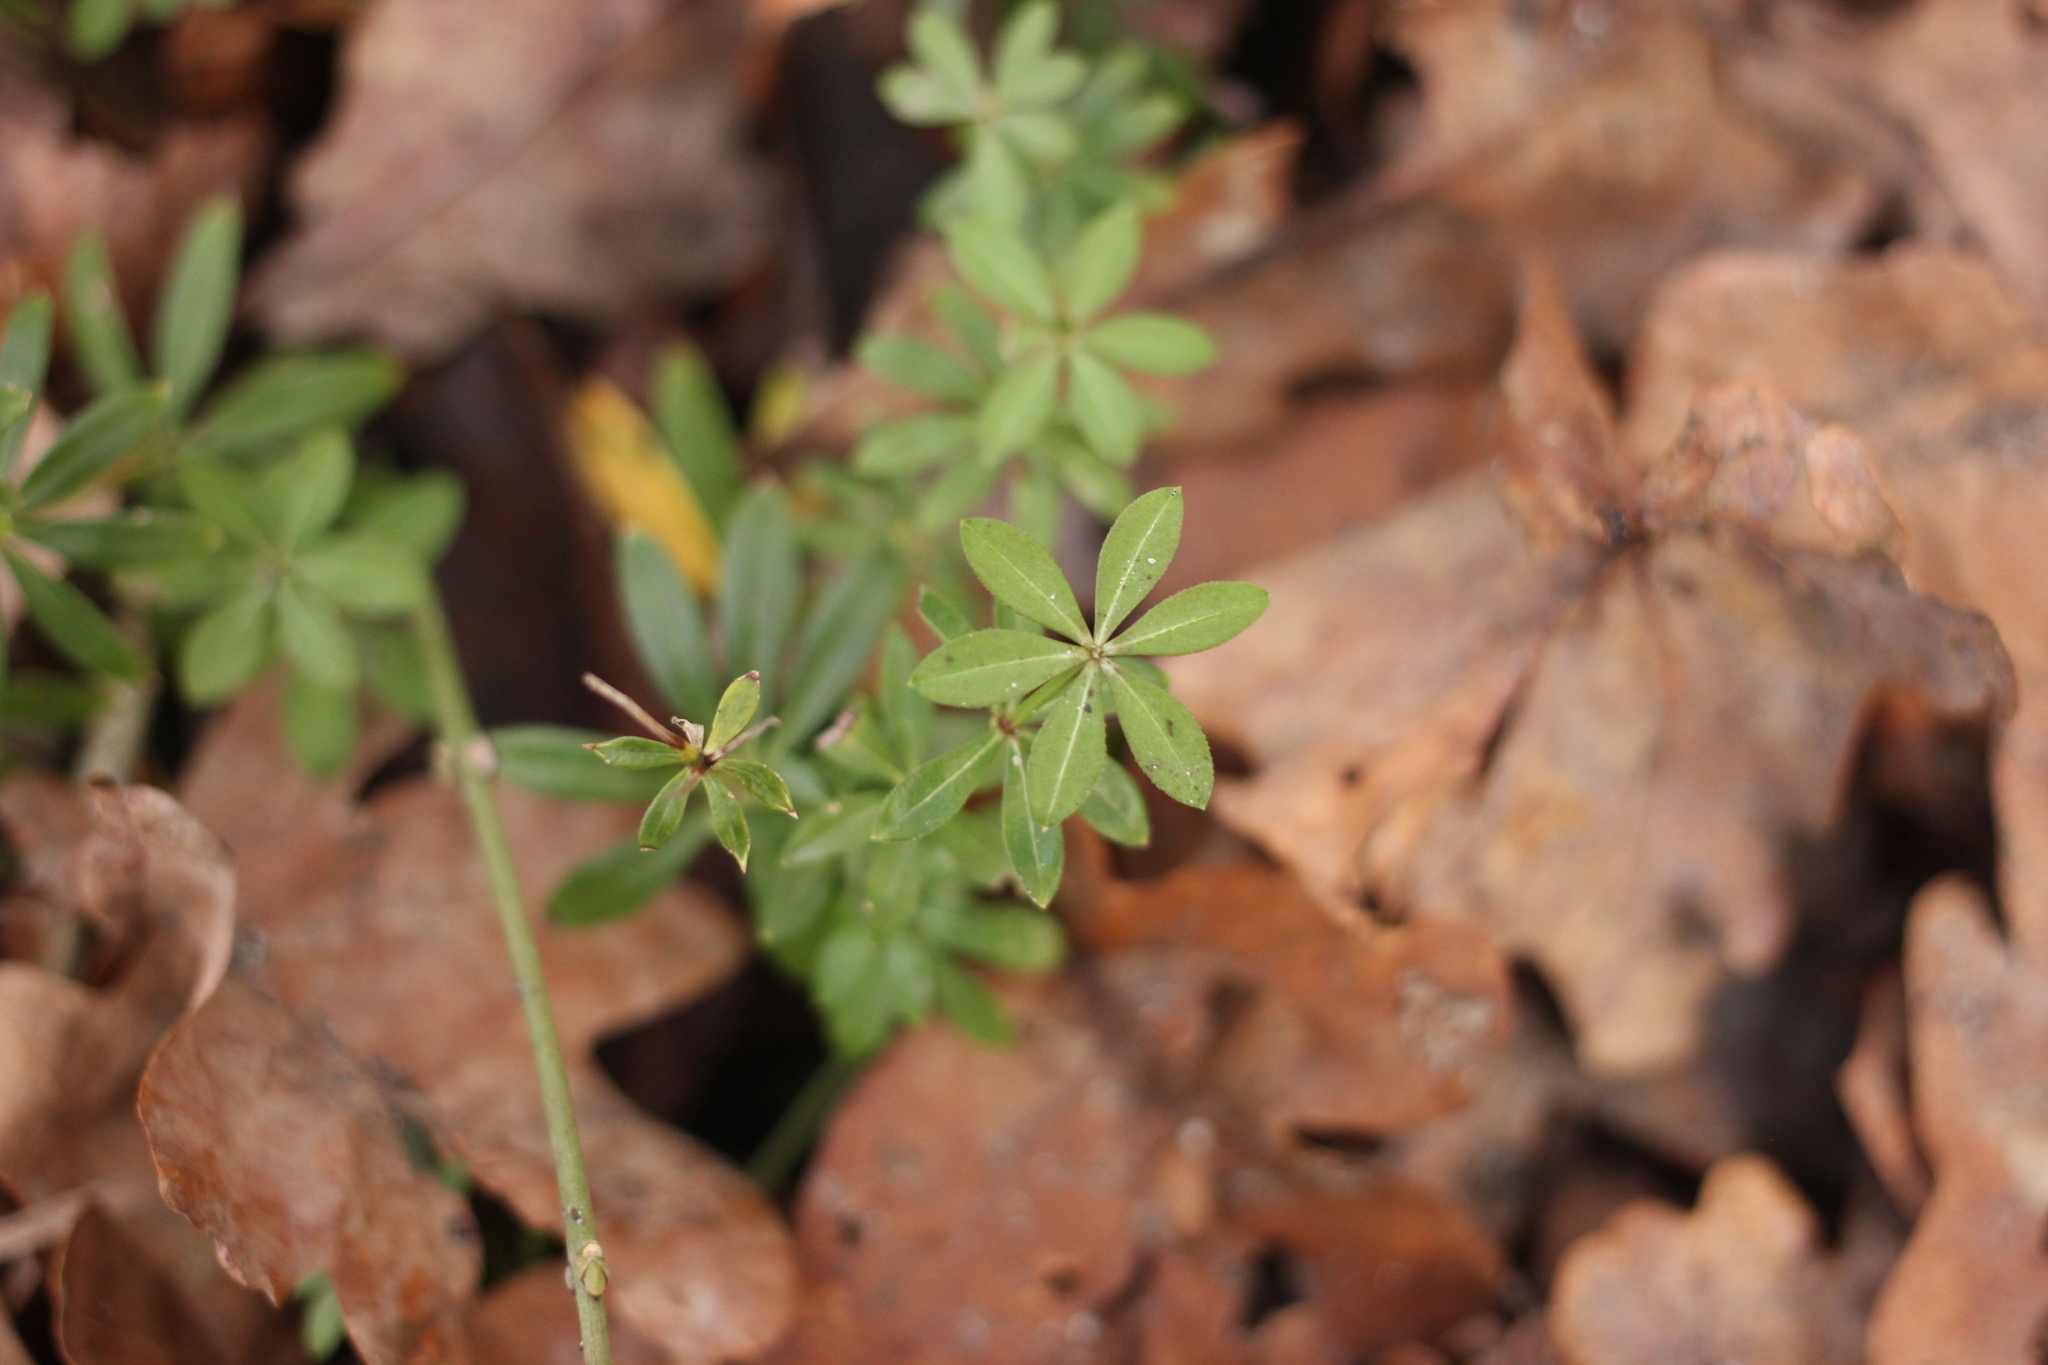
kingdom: Plantae
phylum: Tracheophyta
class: Magnoliopsida
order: Gentianales
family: Rubiaceae
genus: Galium
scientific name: Galium odoratum
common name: Sweet woodruff
